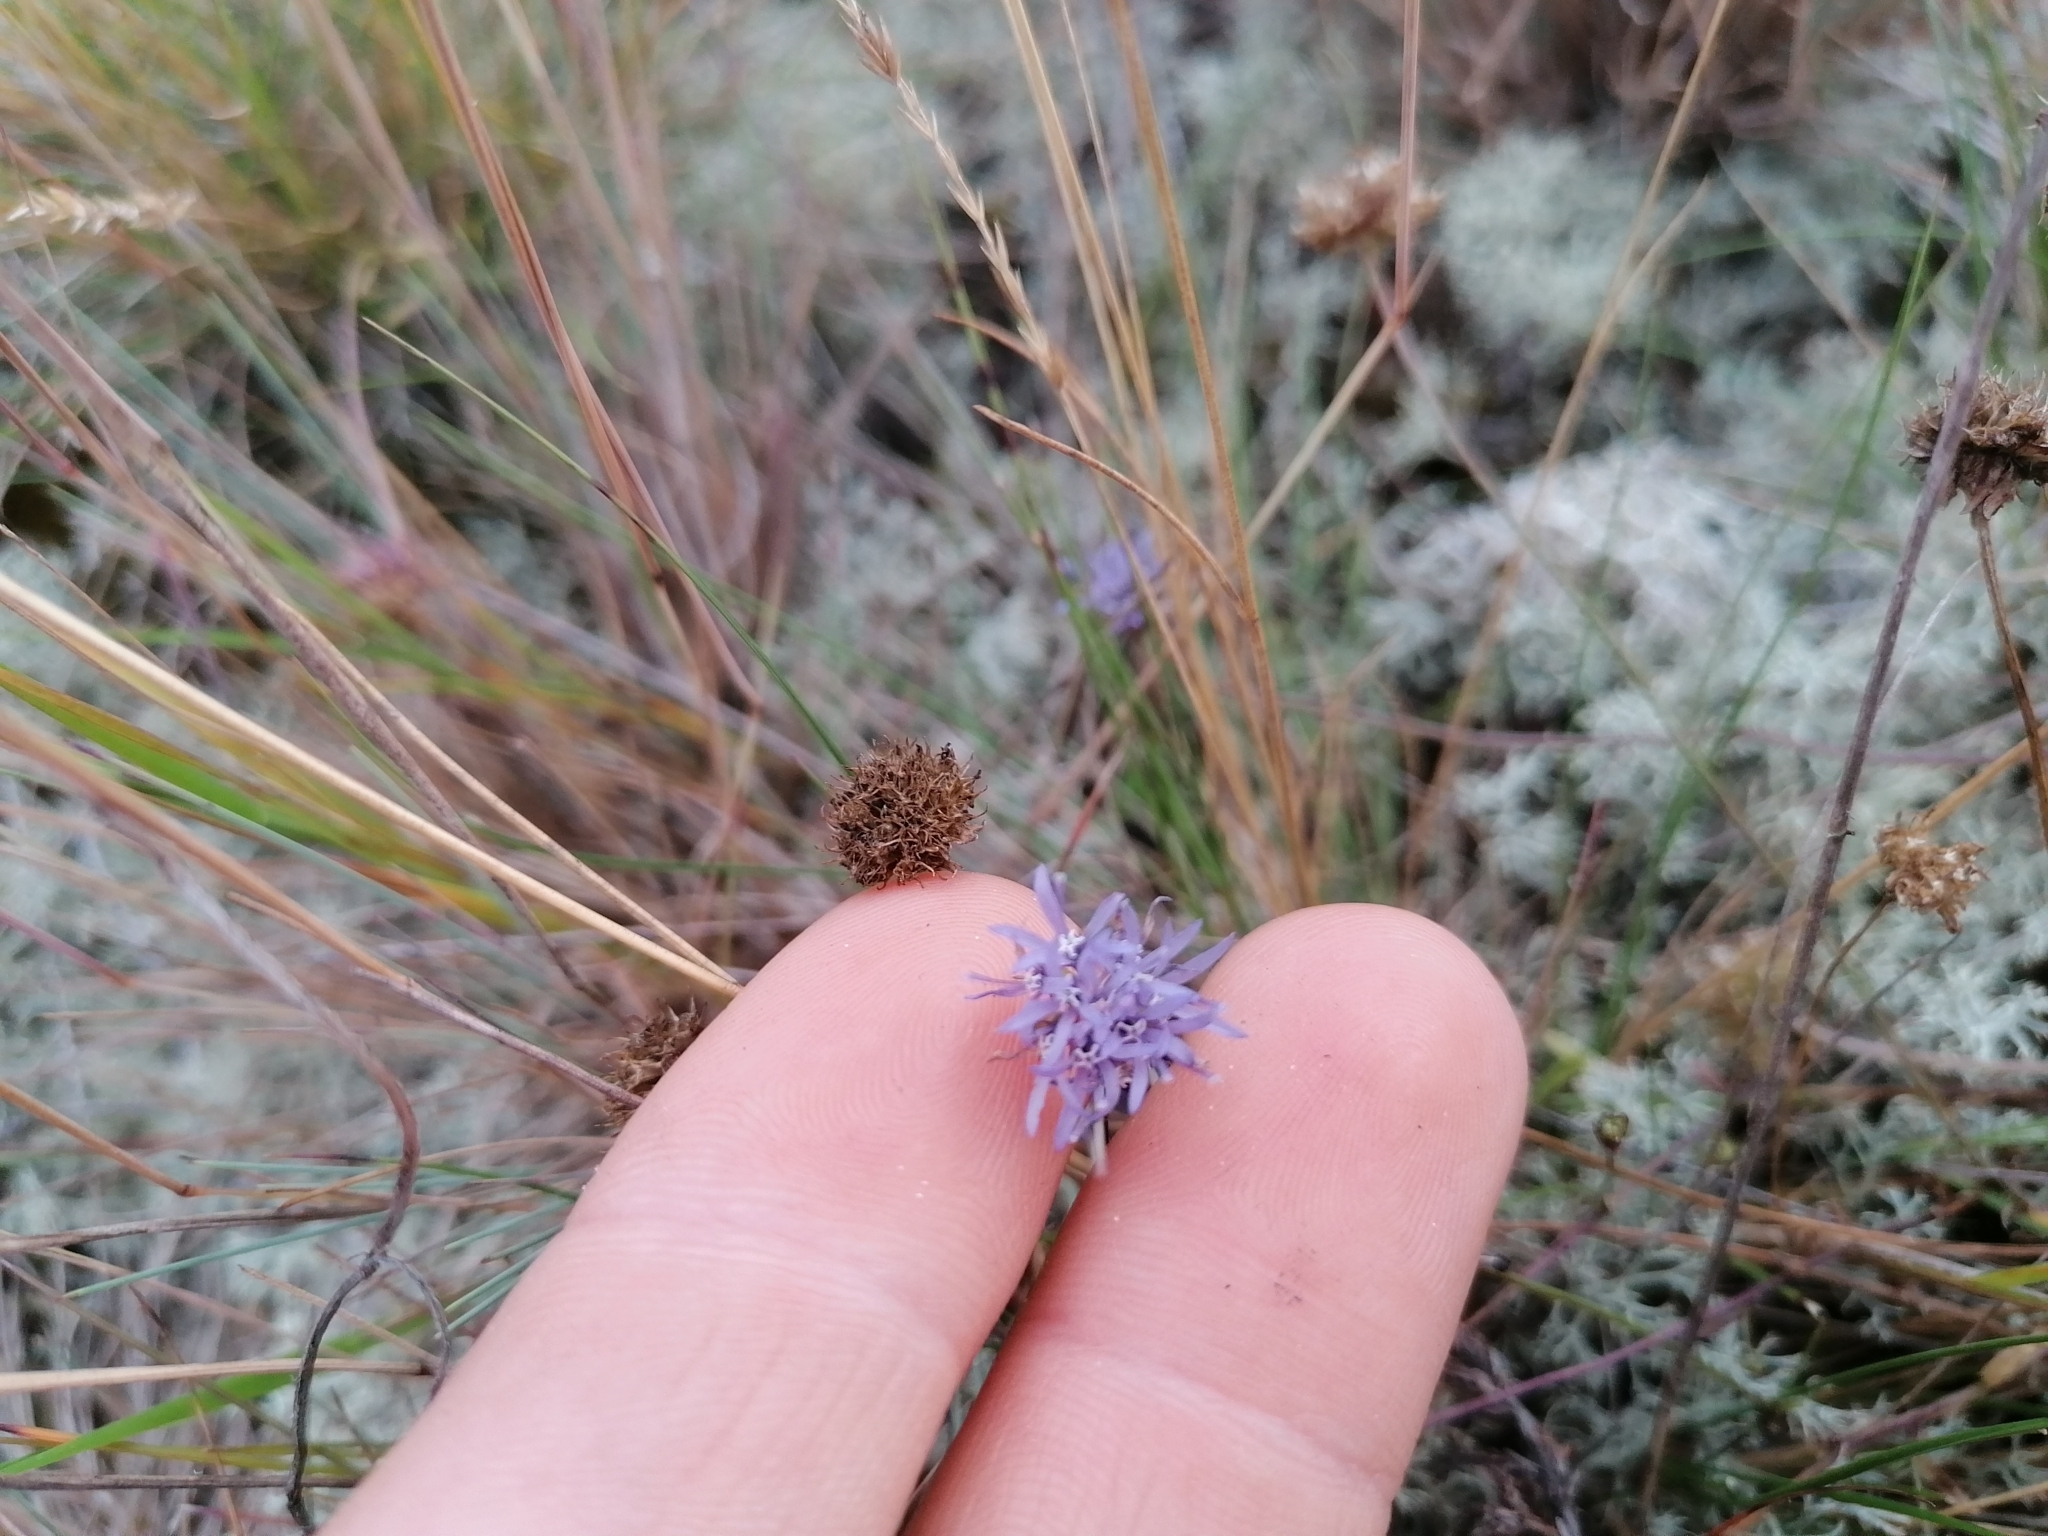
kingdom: Plantae
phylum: Tracheophyta
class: Magnoliopsida
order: Asterales
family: Campanulaceae
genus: Jasione
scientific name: Jasione montana
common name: Sheep's-bit
